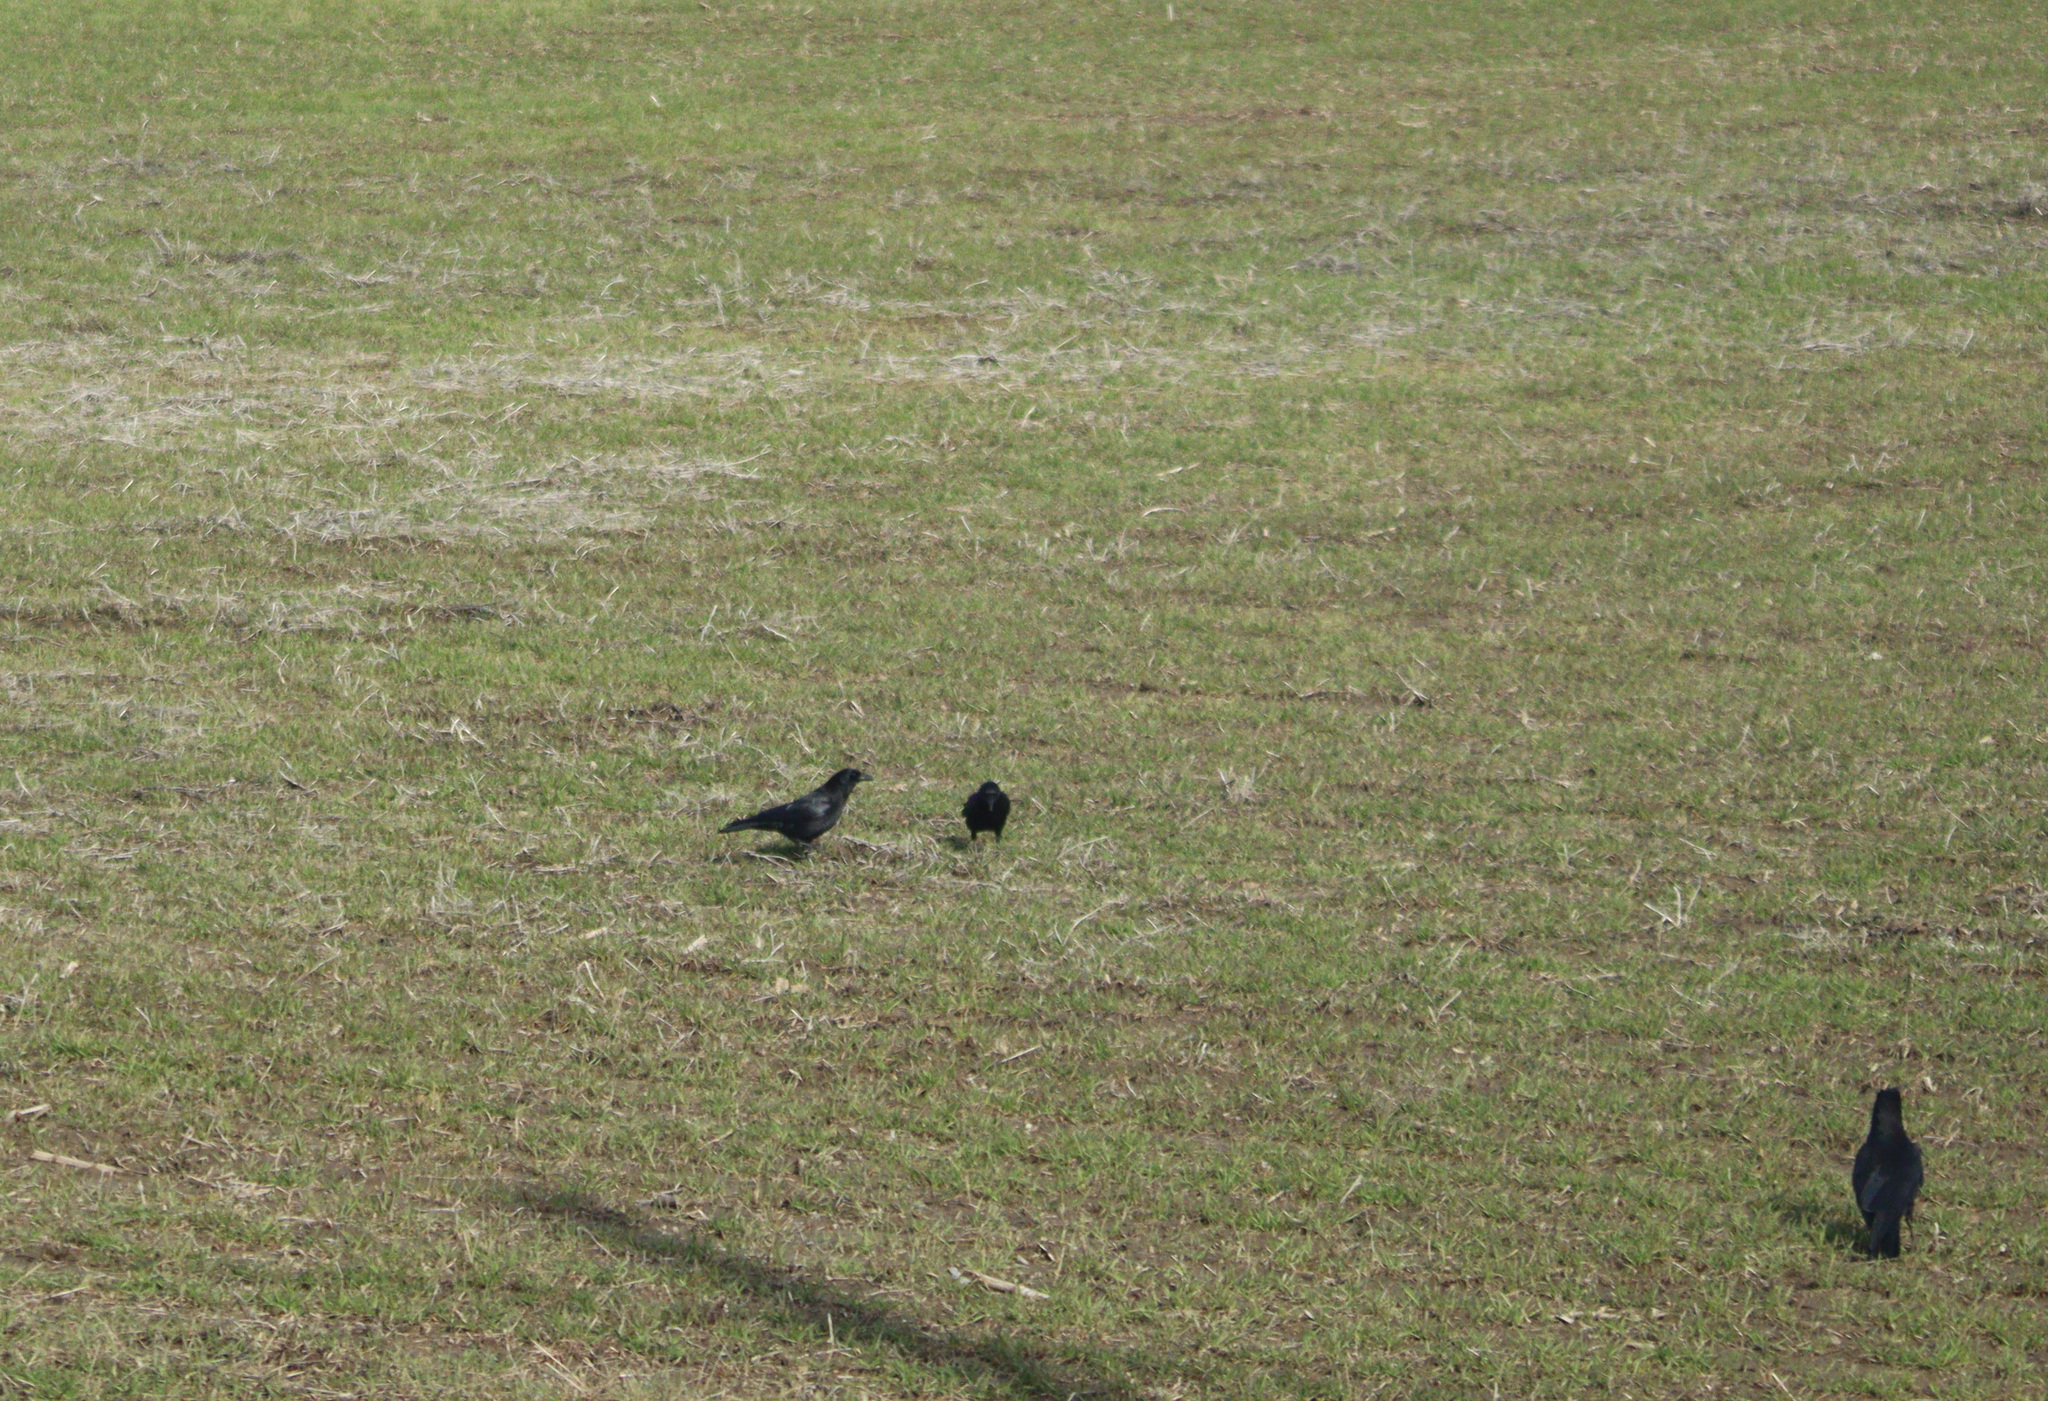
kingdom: Animalia
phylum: Chordata
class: Aves
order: Passeriformes
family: Corvidae
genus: Corvus
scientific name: Corvus brachyrhynchos
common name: American crow
